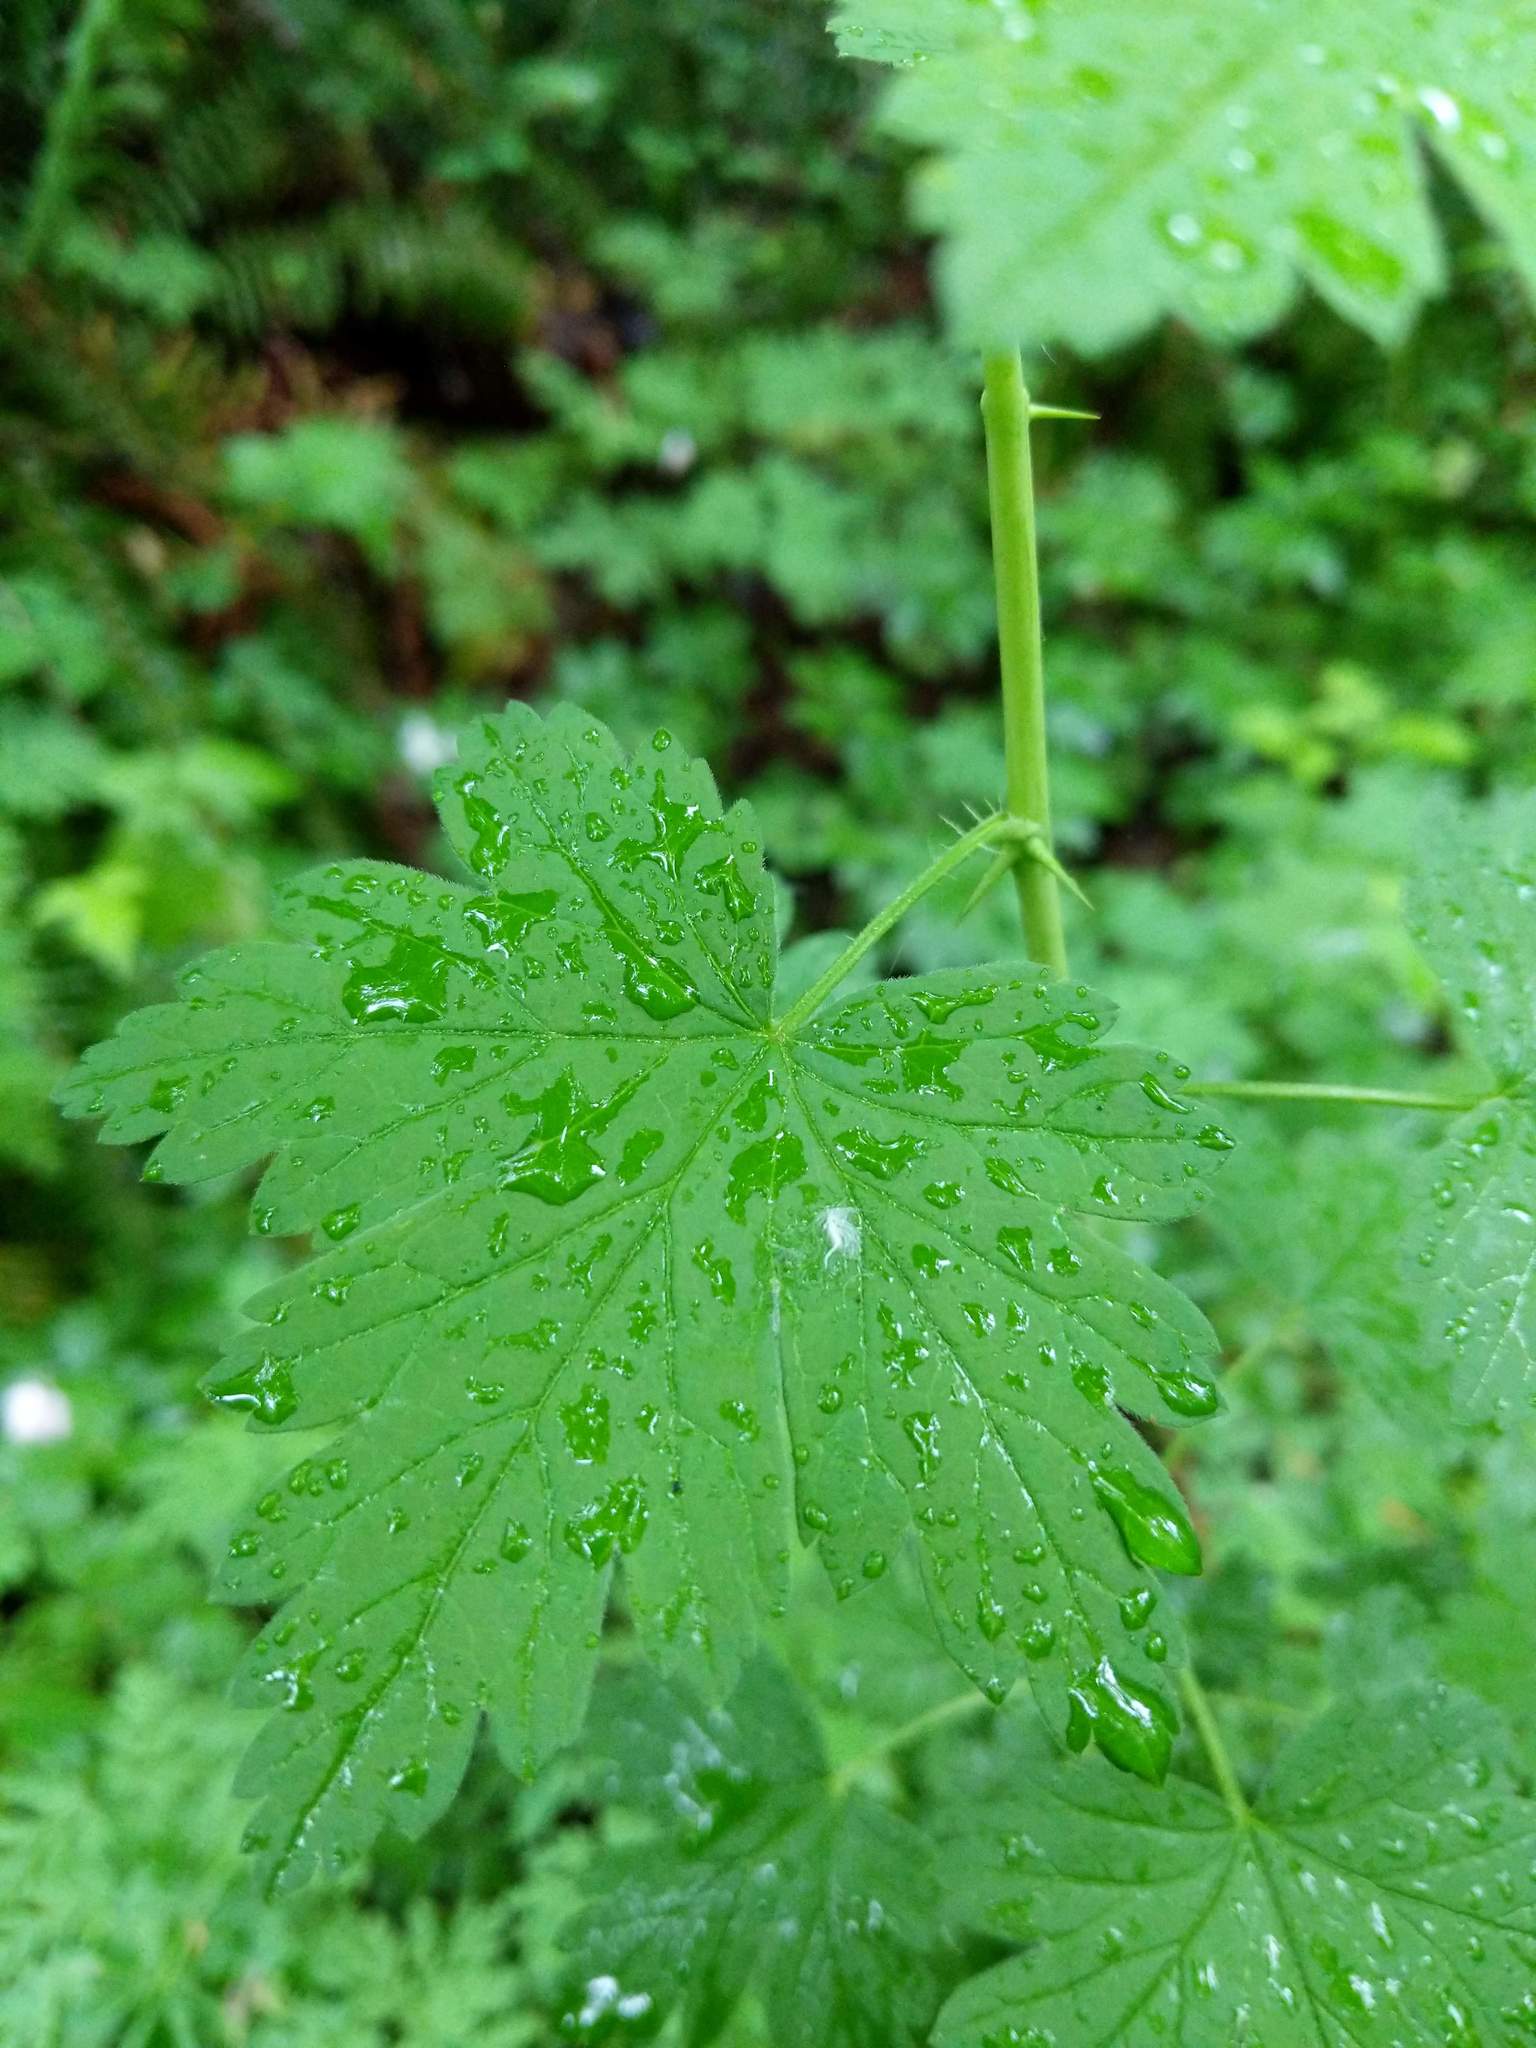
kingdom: Plantae
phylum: Tracheophyta
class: Magnoliopsida
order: Saxifragales
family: Grossulariaceae
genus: Ribes
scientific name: Ribes divaricatum
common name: Wild black gooseberry
